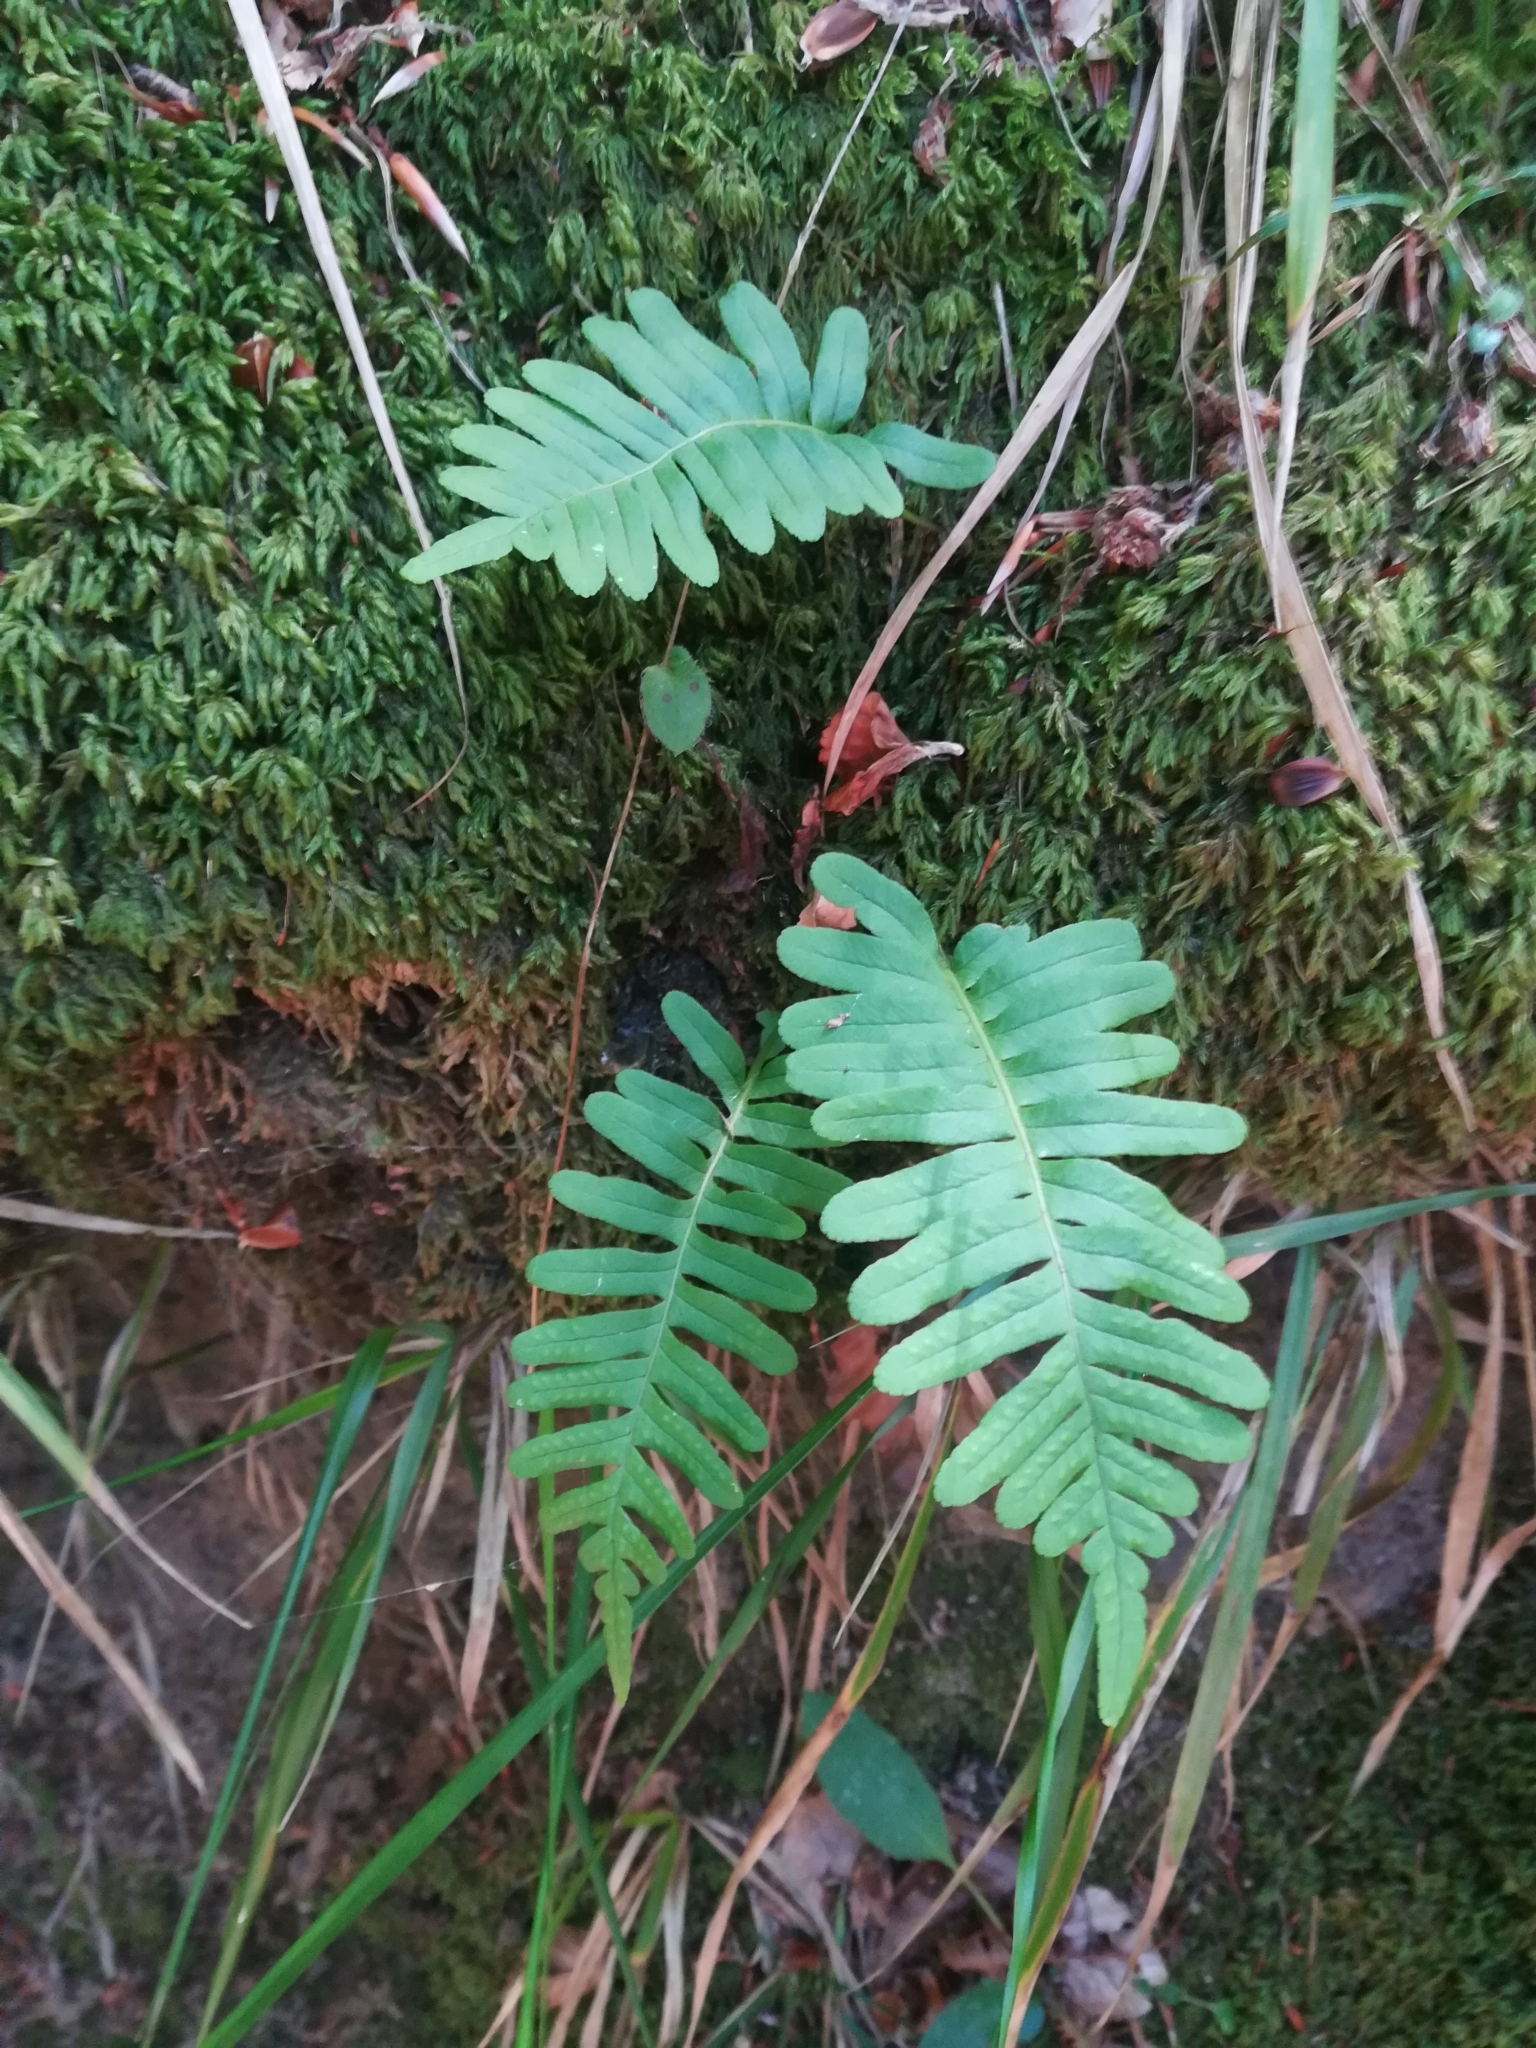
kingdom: Plantae
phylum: Tracheophyta
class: Polypodiopsida
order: Polypodiales
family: Polypodiaceae
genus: Polypodium
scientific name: Polypodium cambricum
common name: Southern polypody
